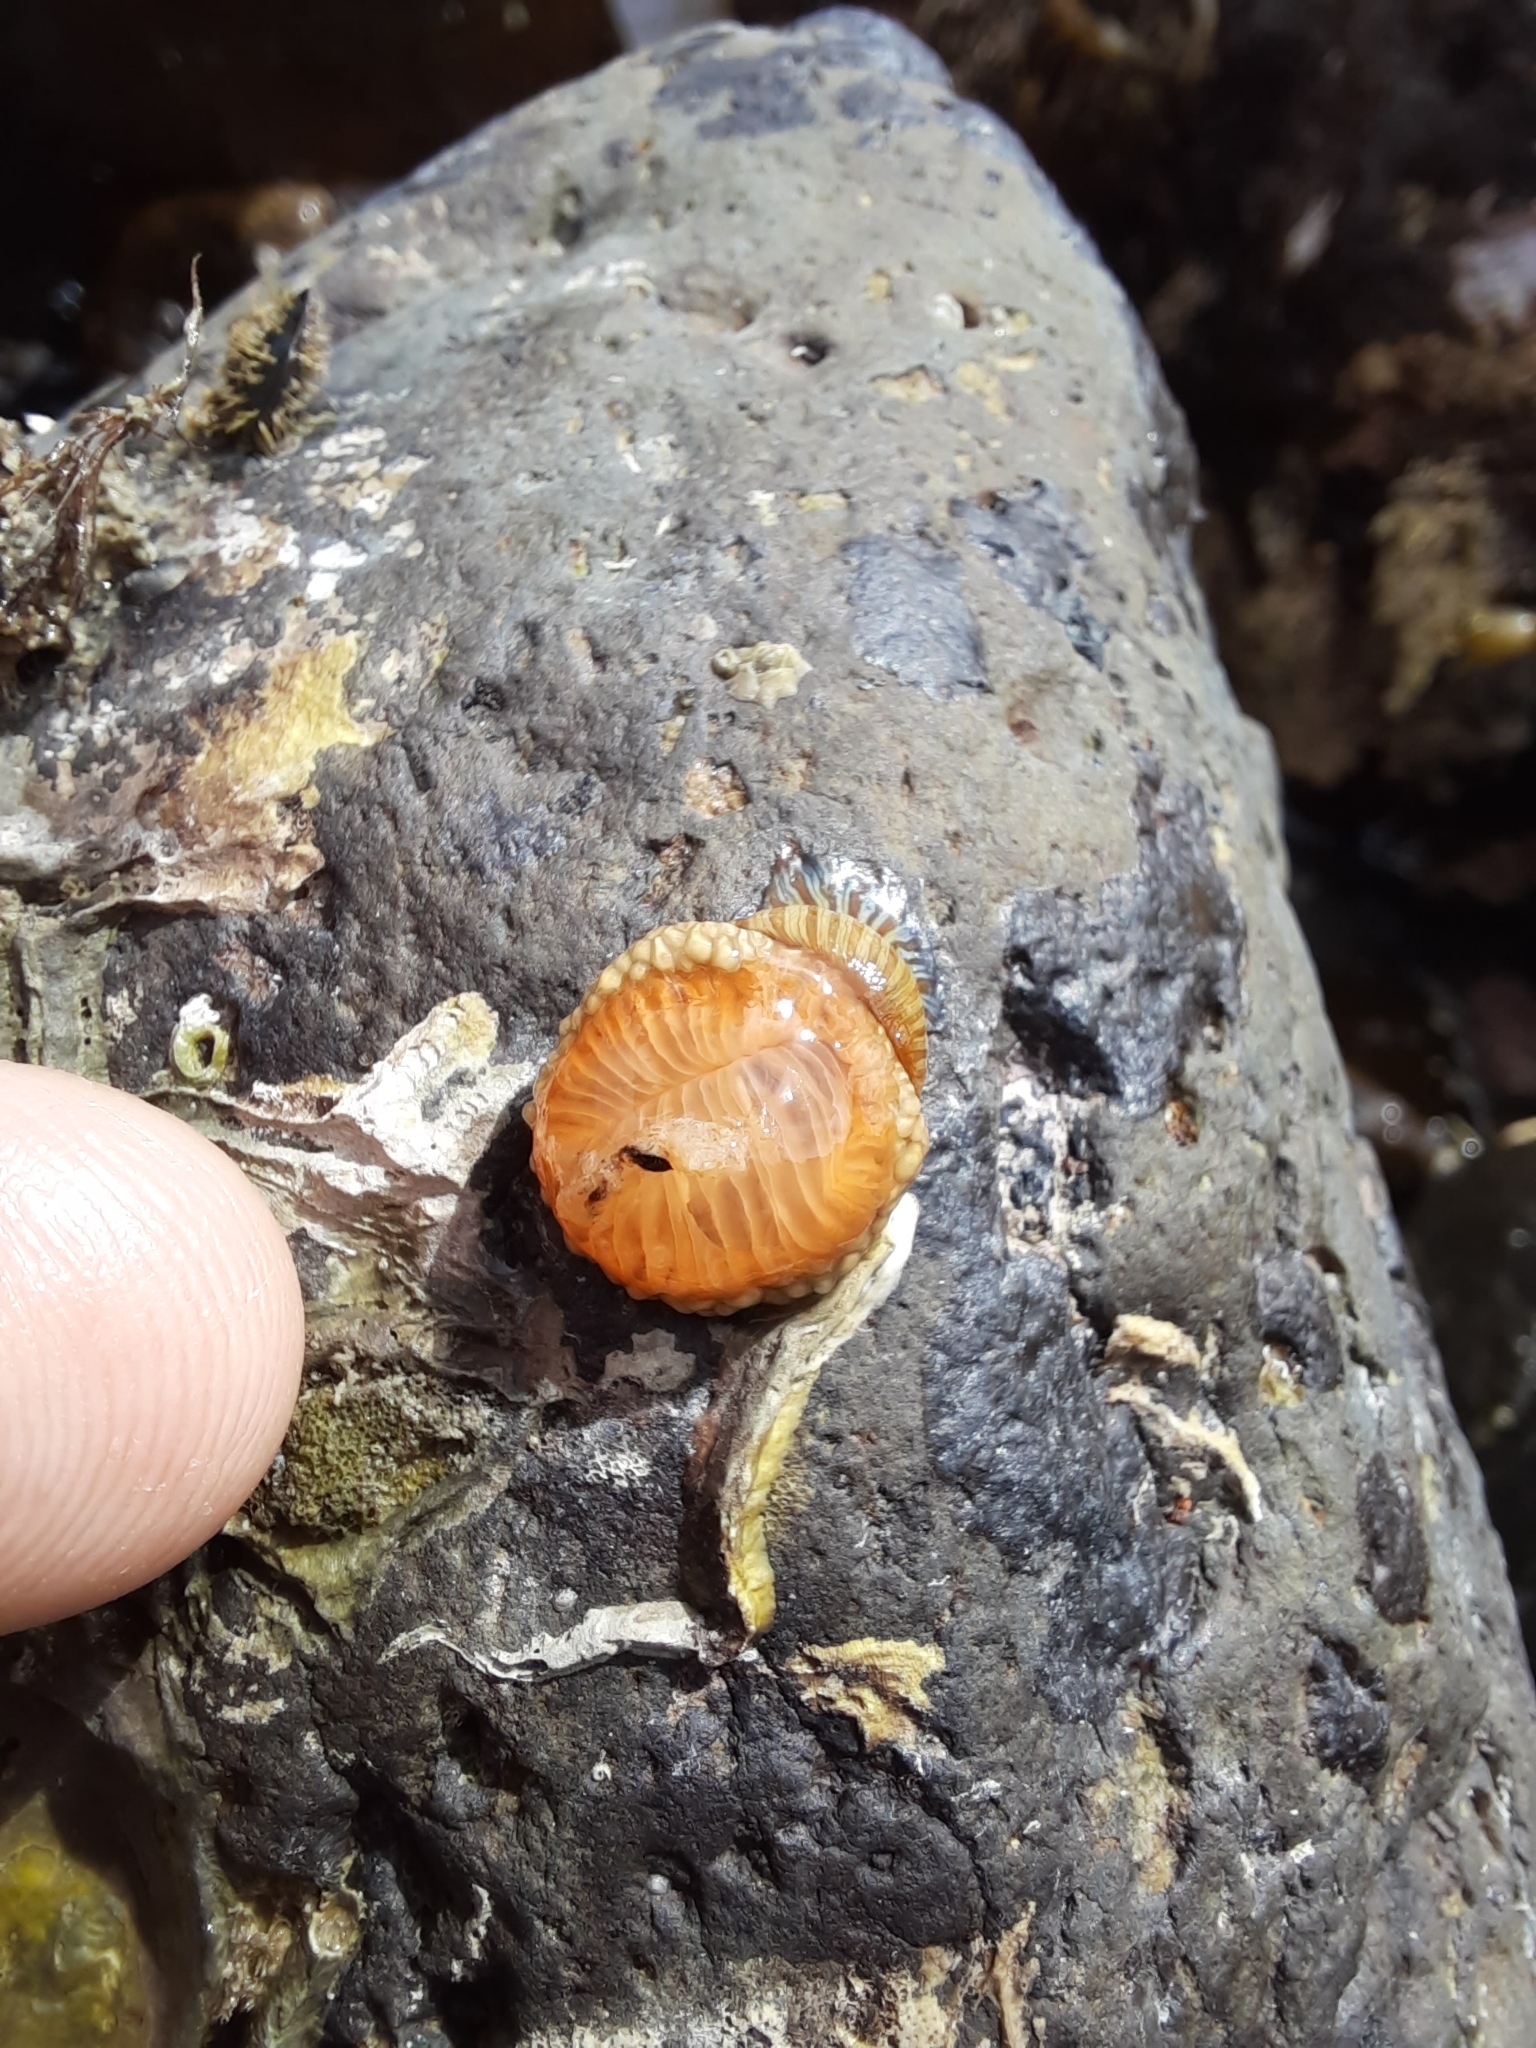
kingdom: Animalia
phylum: Cnidaria
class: Anthozoa
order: Actiniaria
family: Sagartiidae
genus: Anthothoe
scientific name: Anthothoe albocincta
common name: Orange striped anemone
